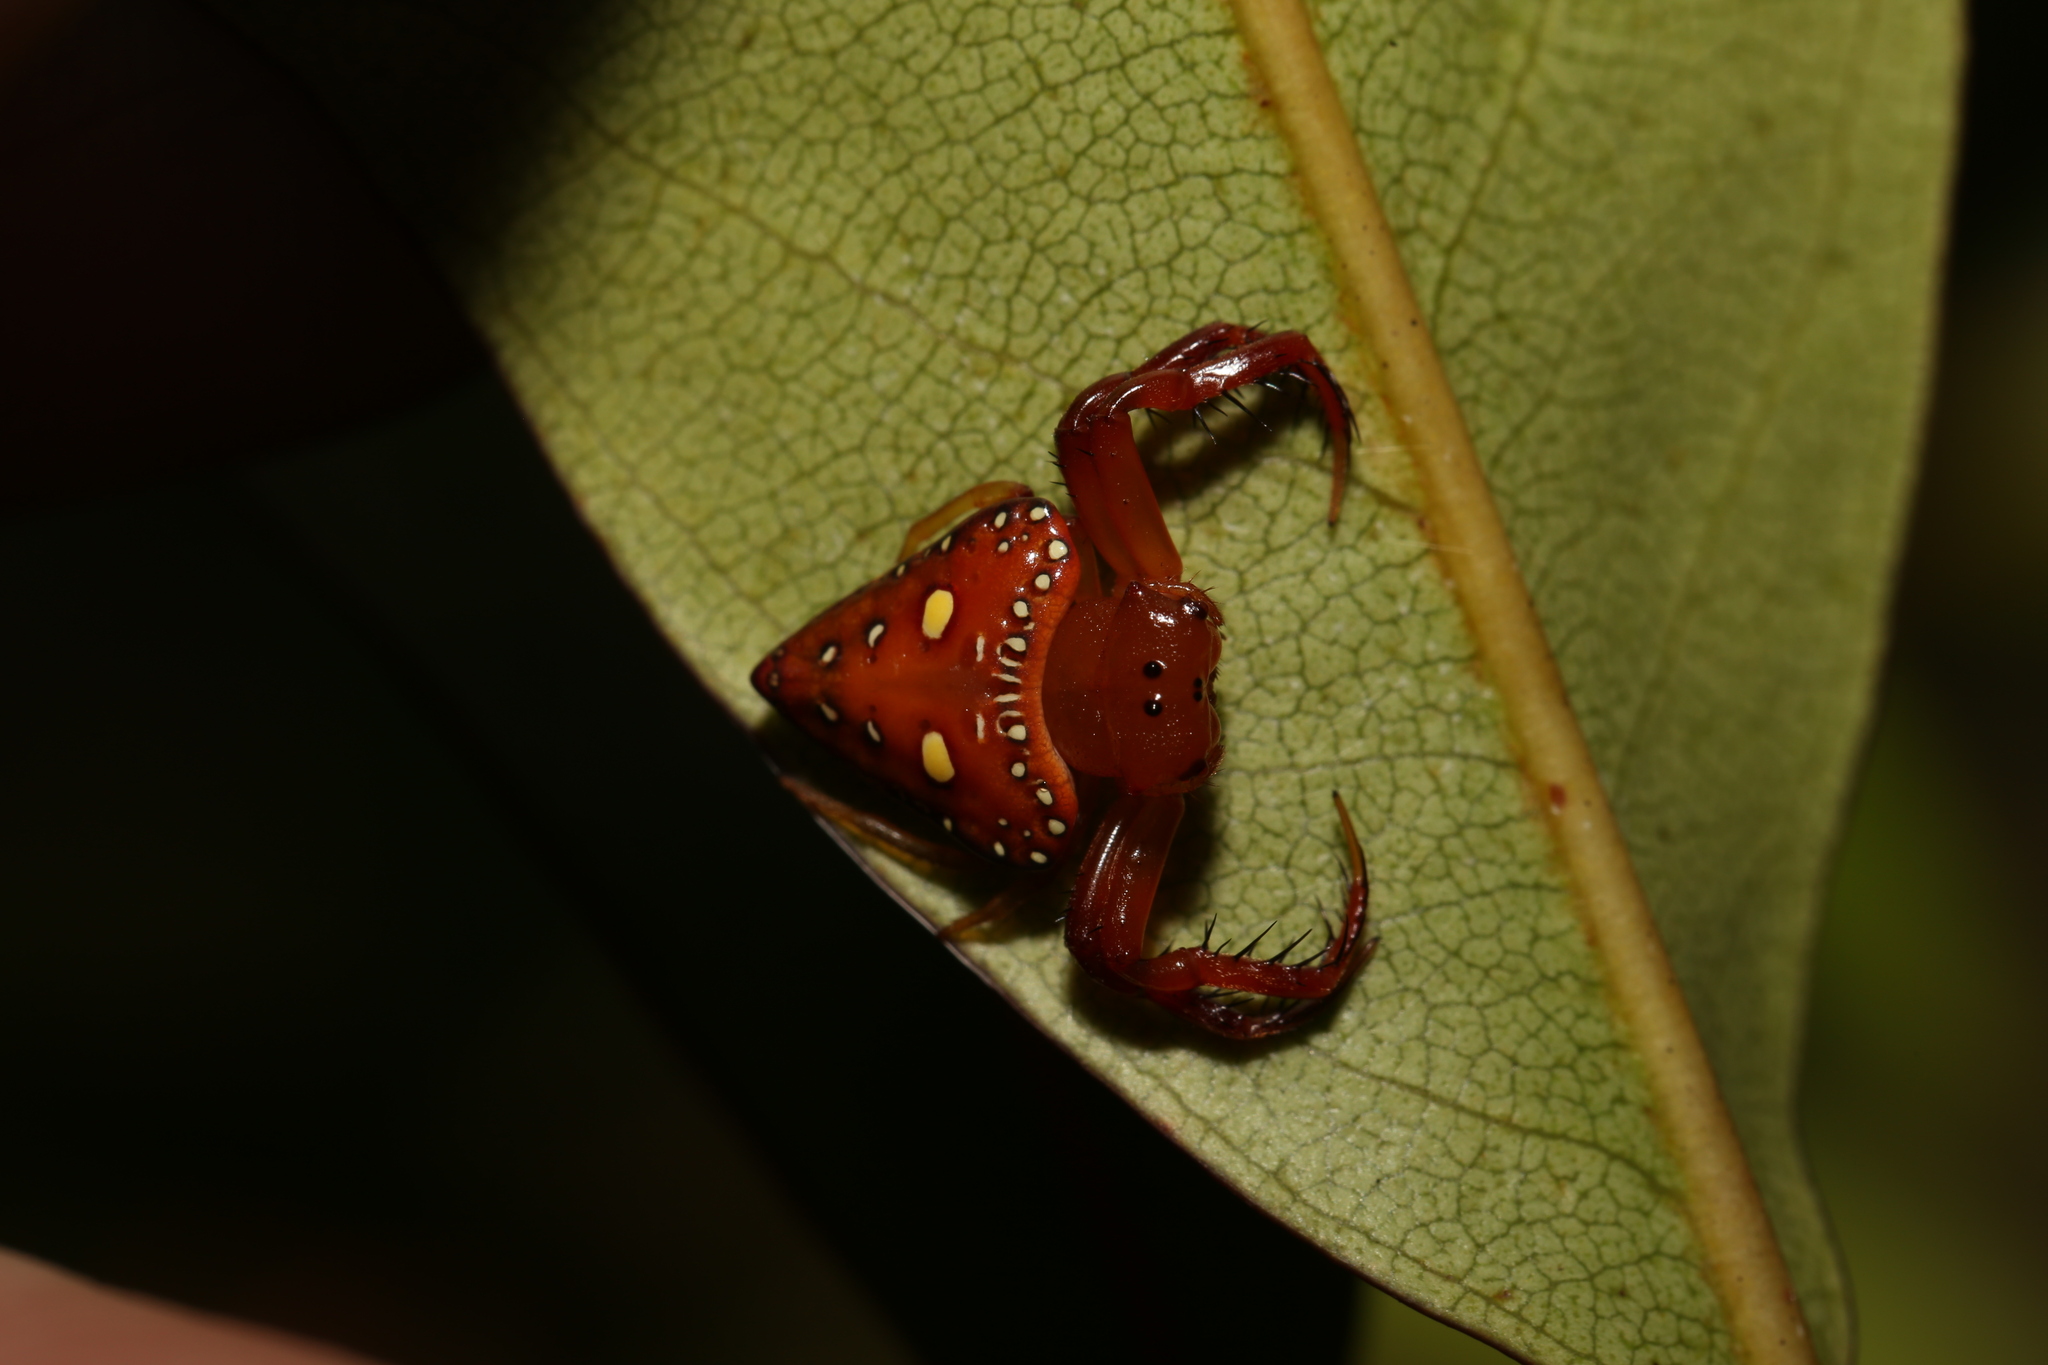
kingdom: Animalia
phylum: Arthropoda
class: Arachnida
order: Araneae
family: Arkyidae
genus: Arkys
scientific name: Arkys lancearius
